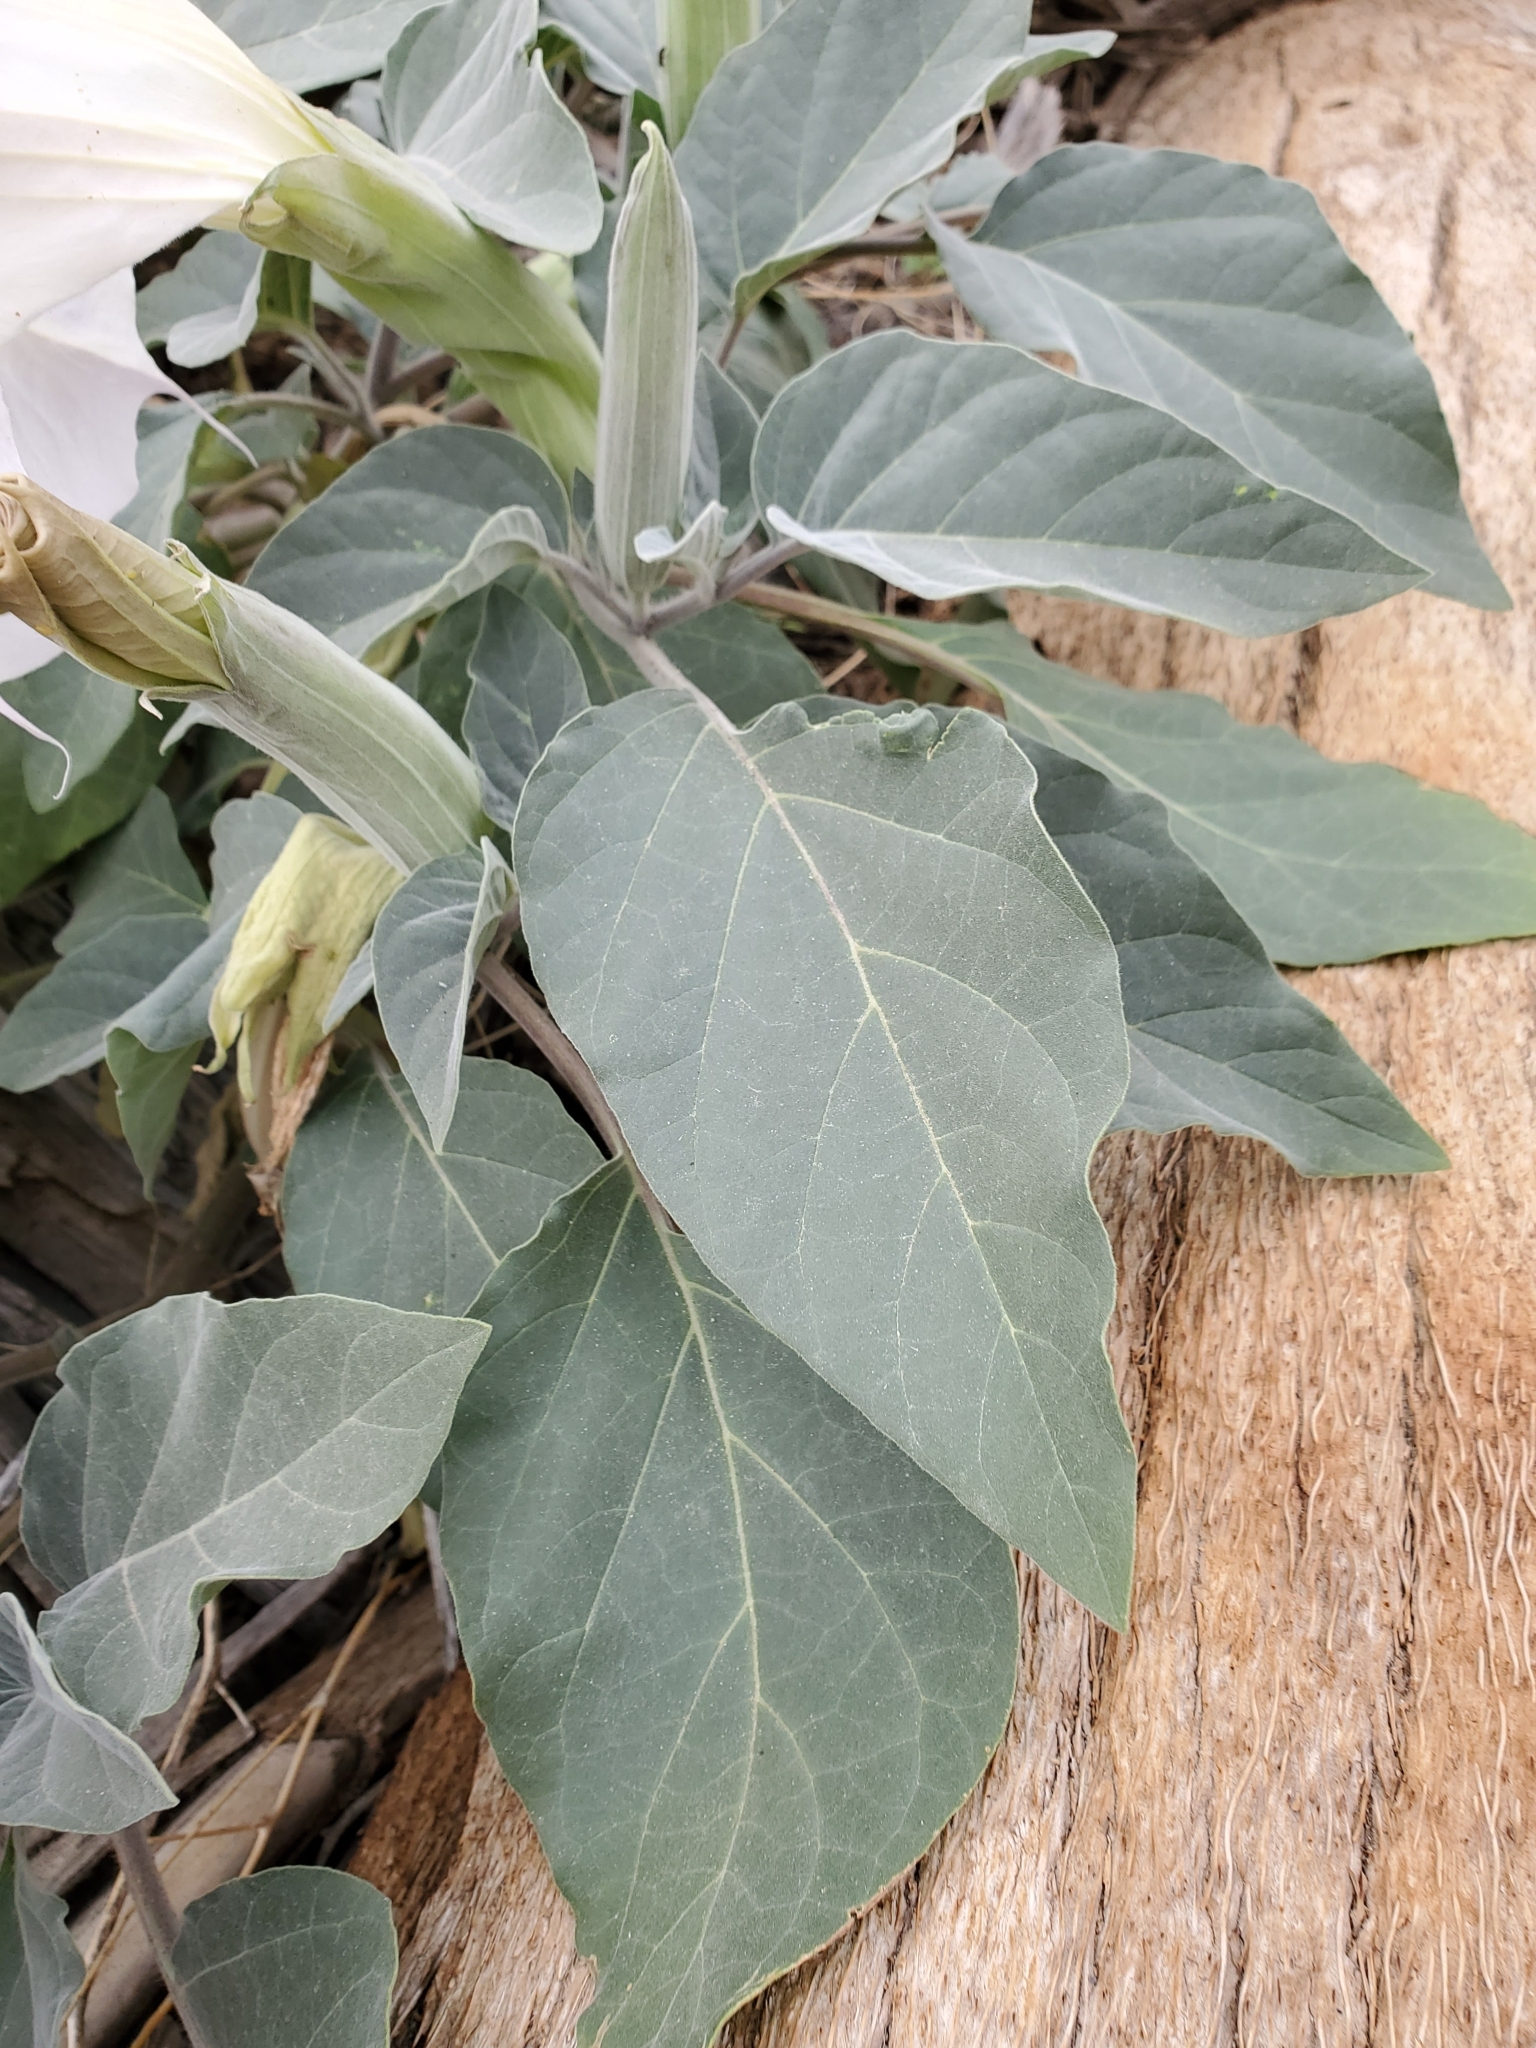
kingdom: Plantae
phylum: Tracheophyta
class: Magnoliopsida
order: Solanales
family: Solanaceae
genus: Datura
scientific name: Datura wrightii
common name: Sacred thorn-apple
